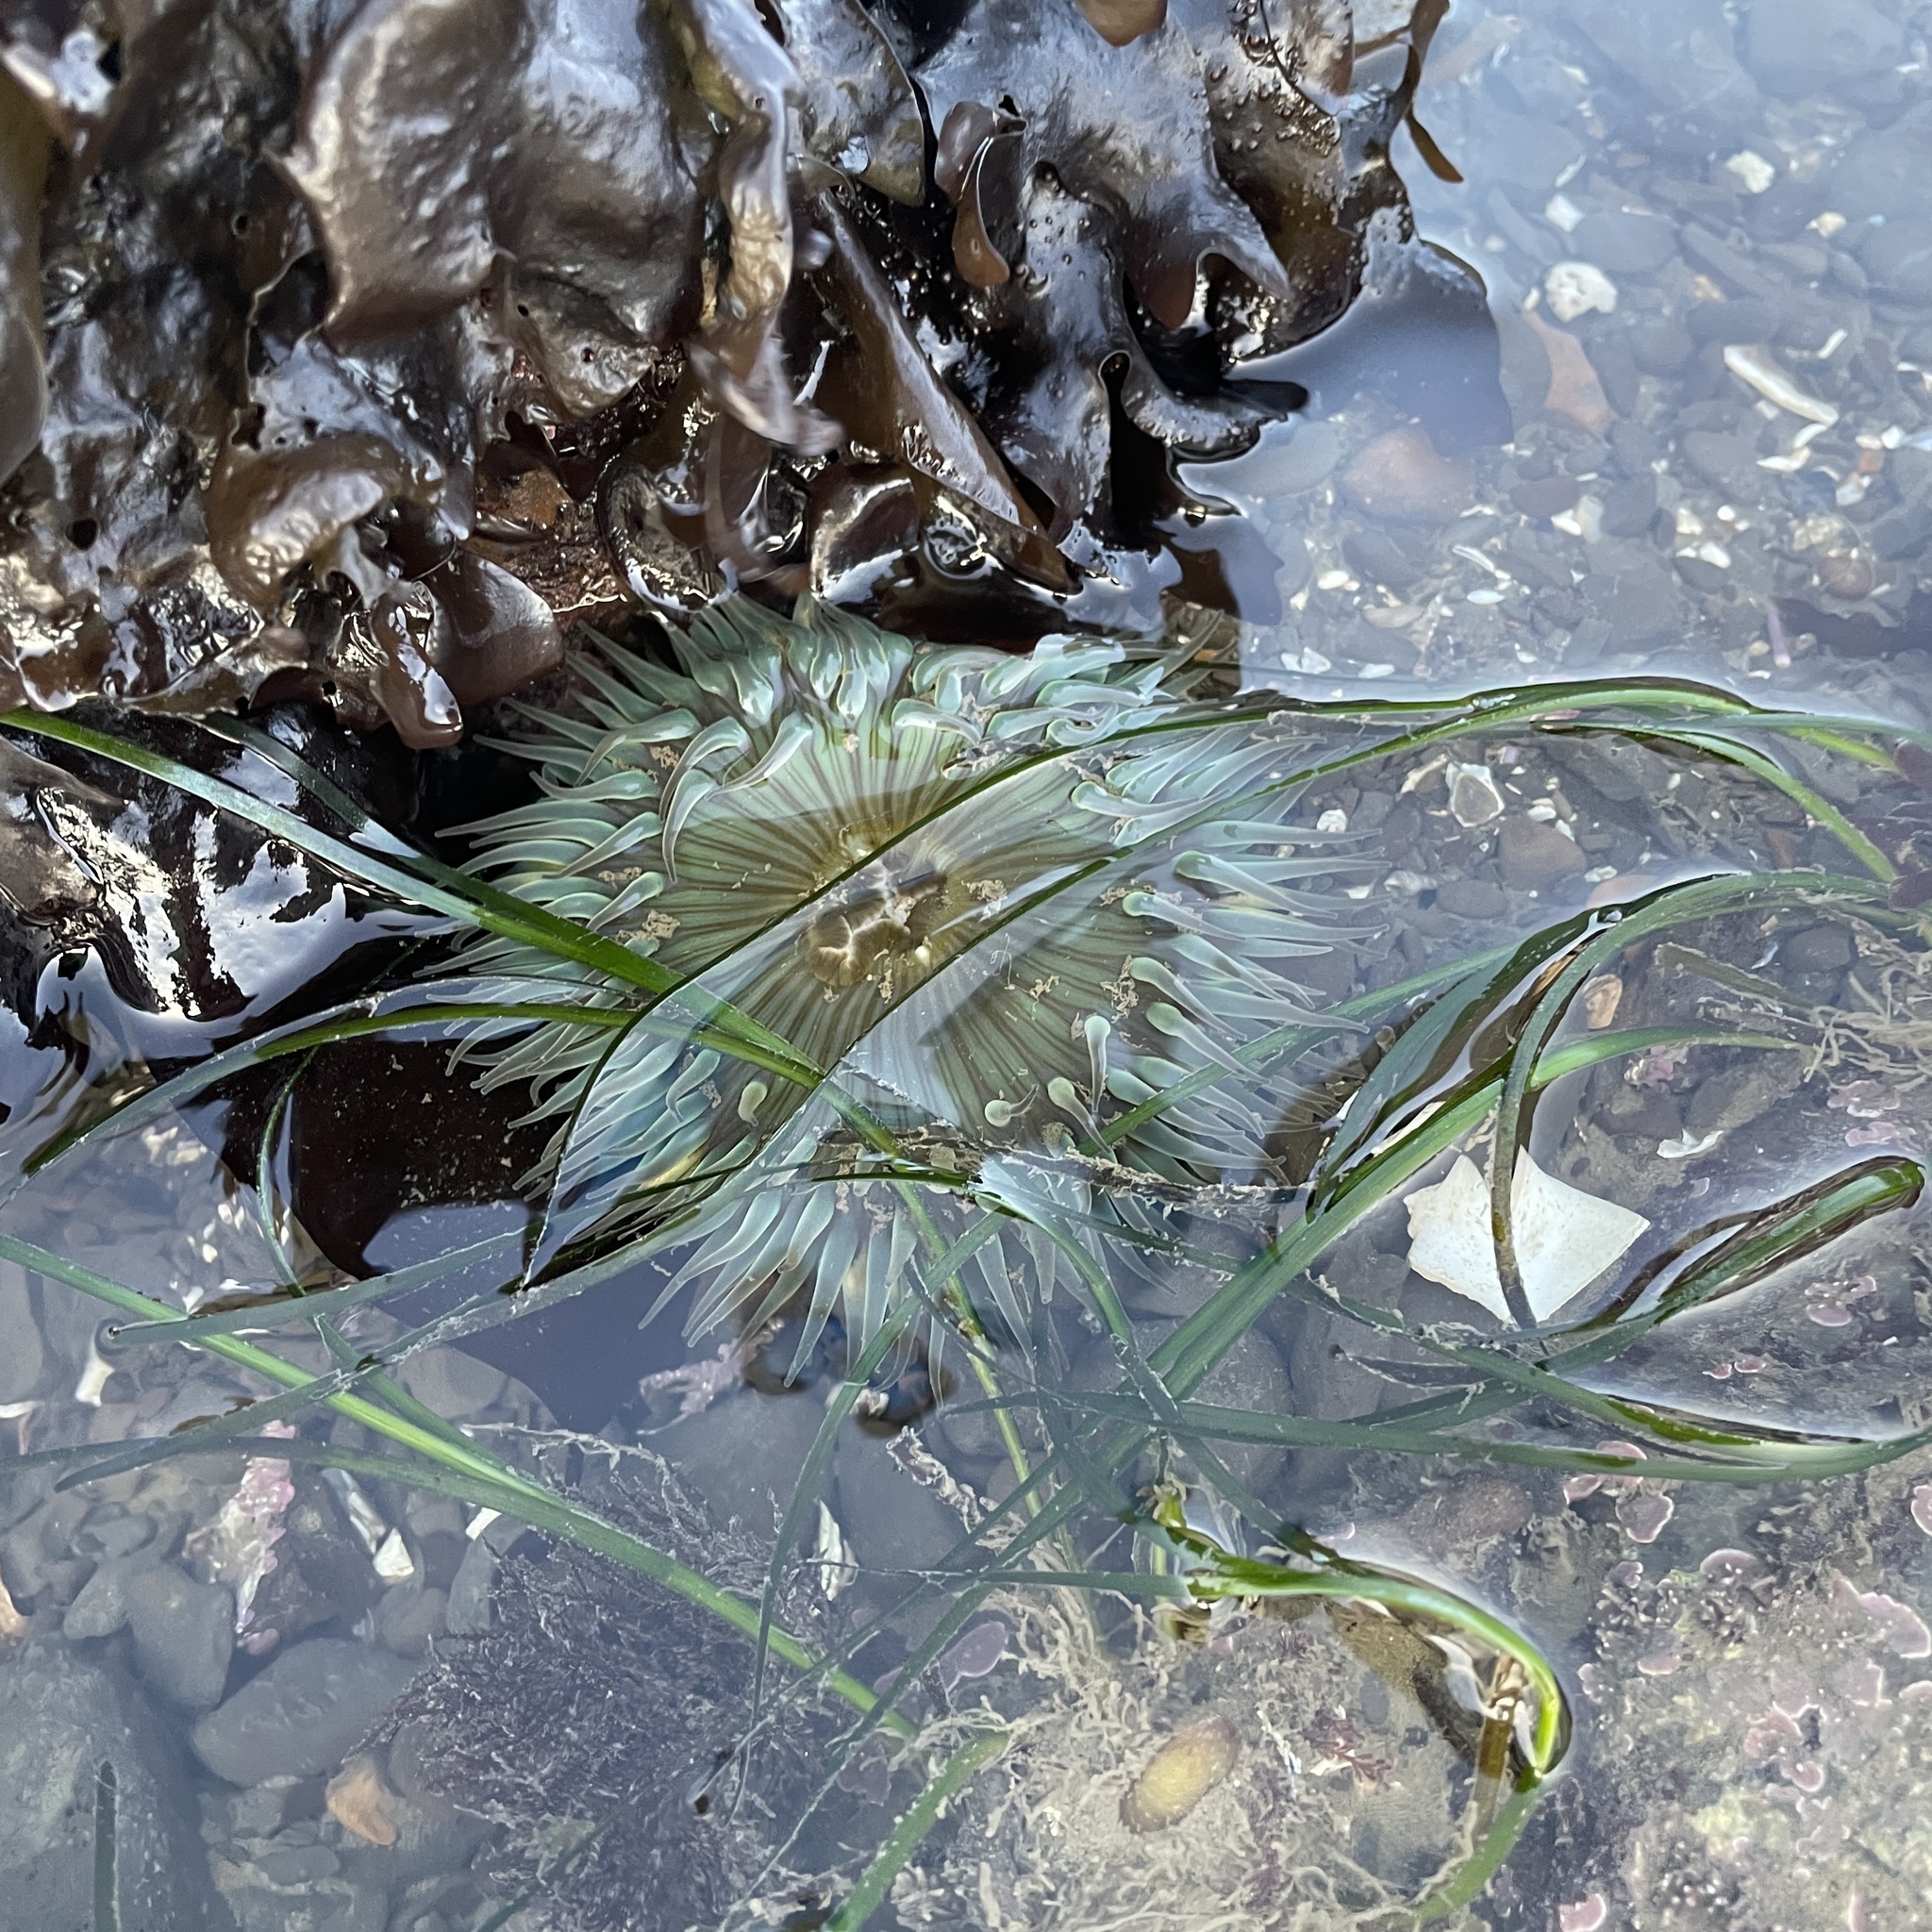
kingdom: Animalia
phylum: Cnidaria
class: Anthozoa
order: Actiniaria
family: Actiniidae
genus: Anthopleura
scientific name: Anthopleura sola
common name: Sun anemone
